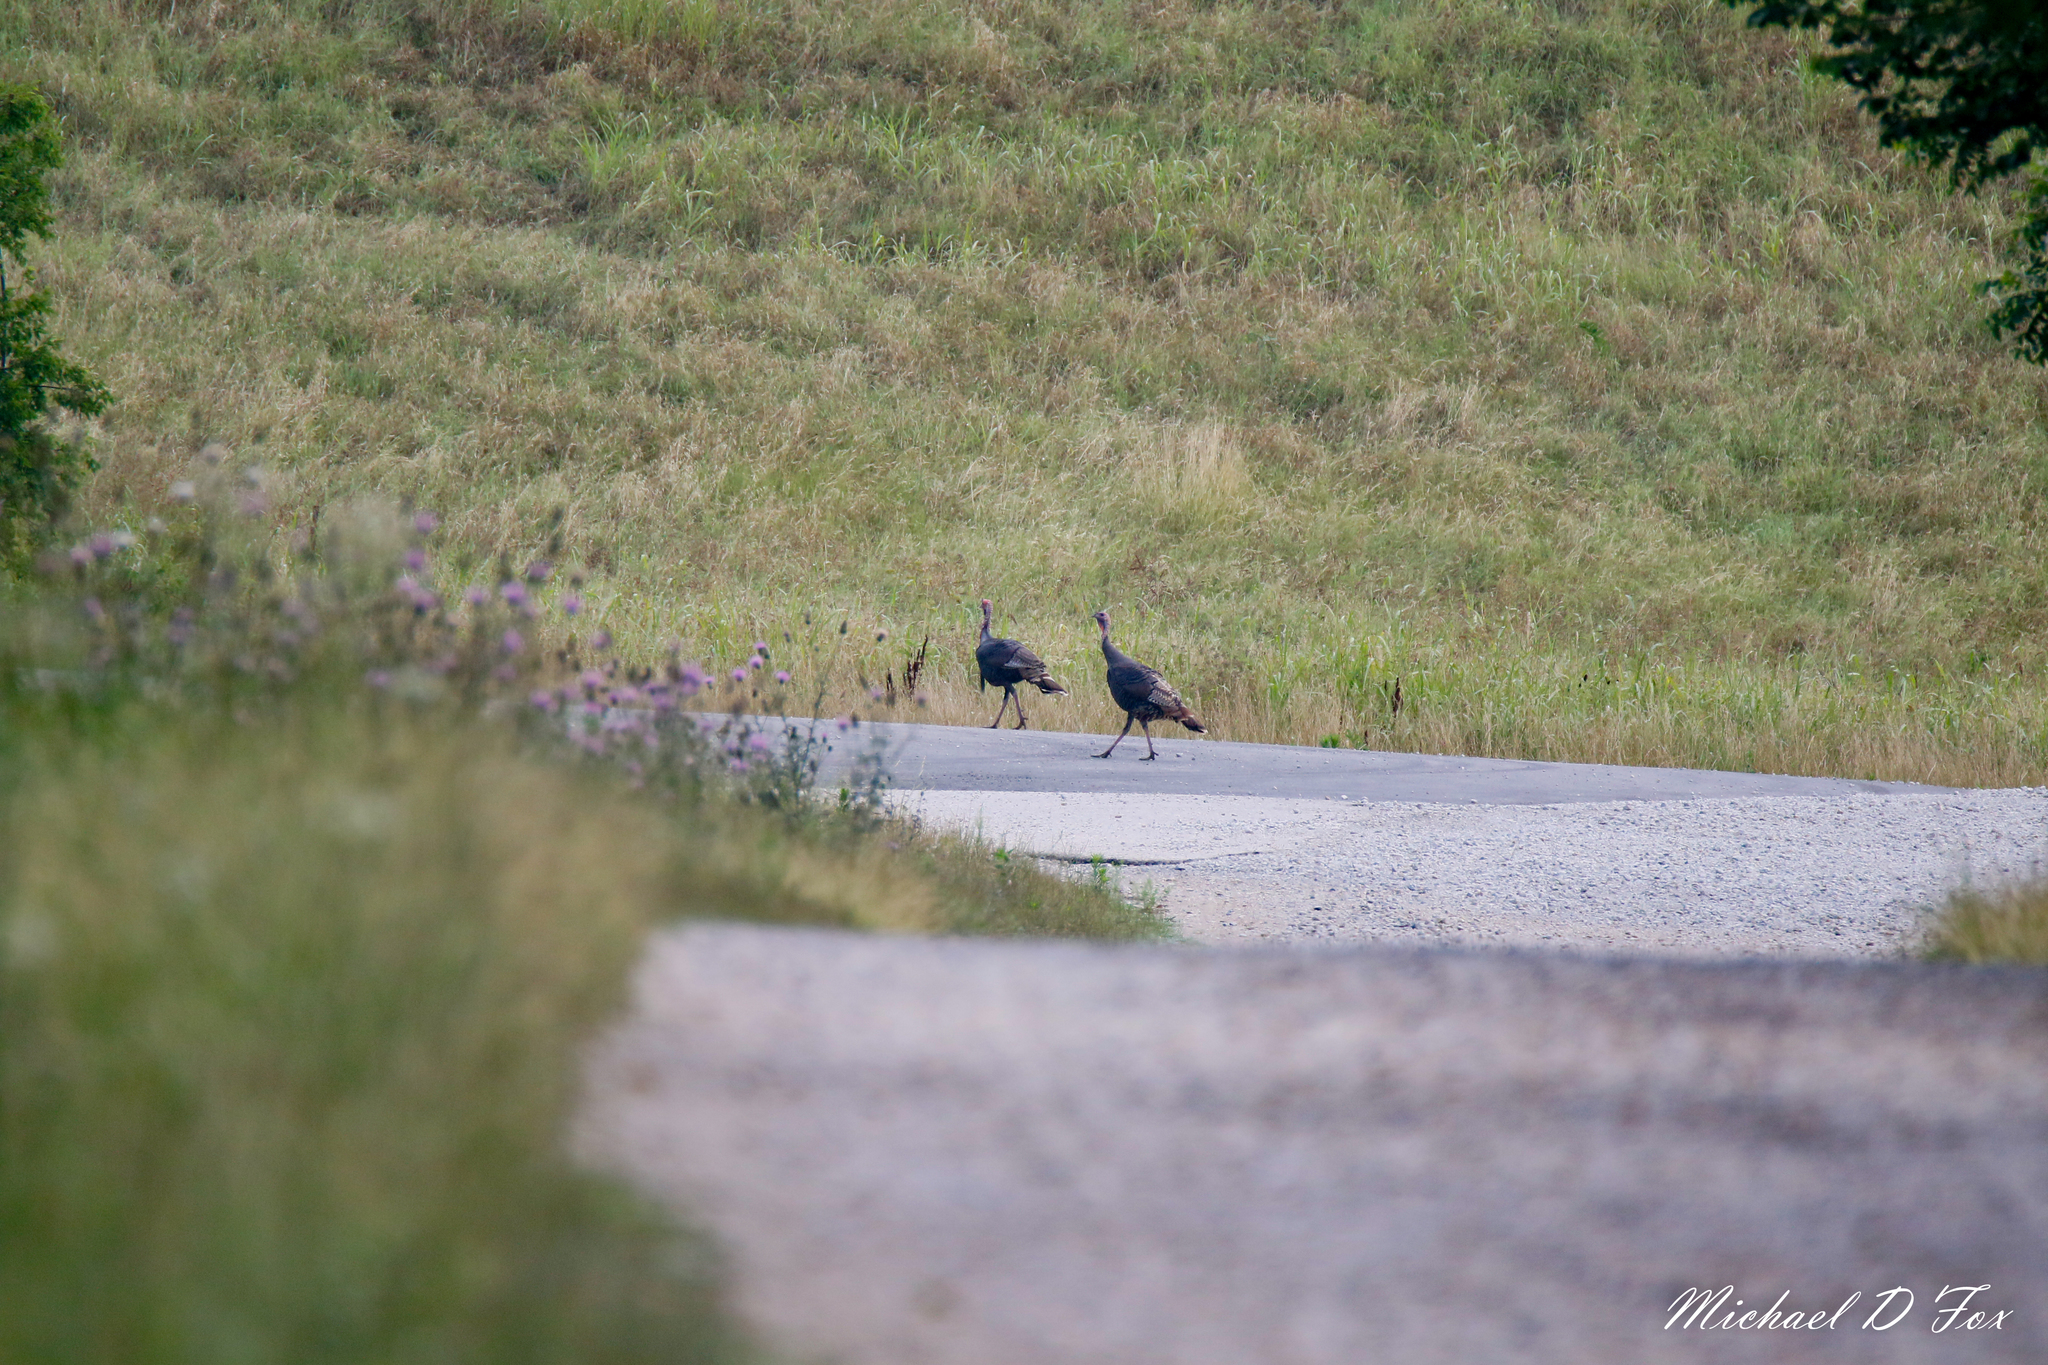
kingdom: Animalia
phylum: Chordata
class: Aves
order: Galliformes
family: Phasianidae
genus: Meleagris
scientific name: Meleagris gallopavo
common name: Wild turkey
